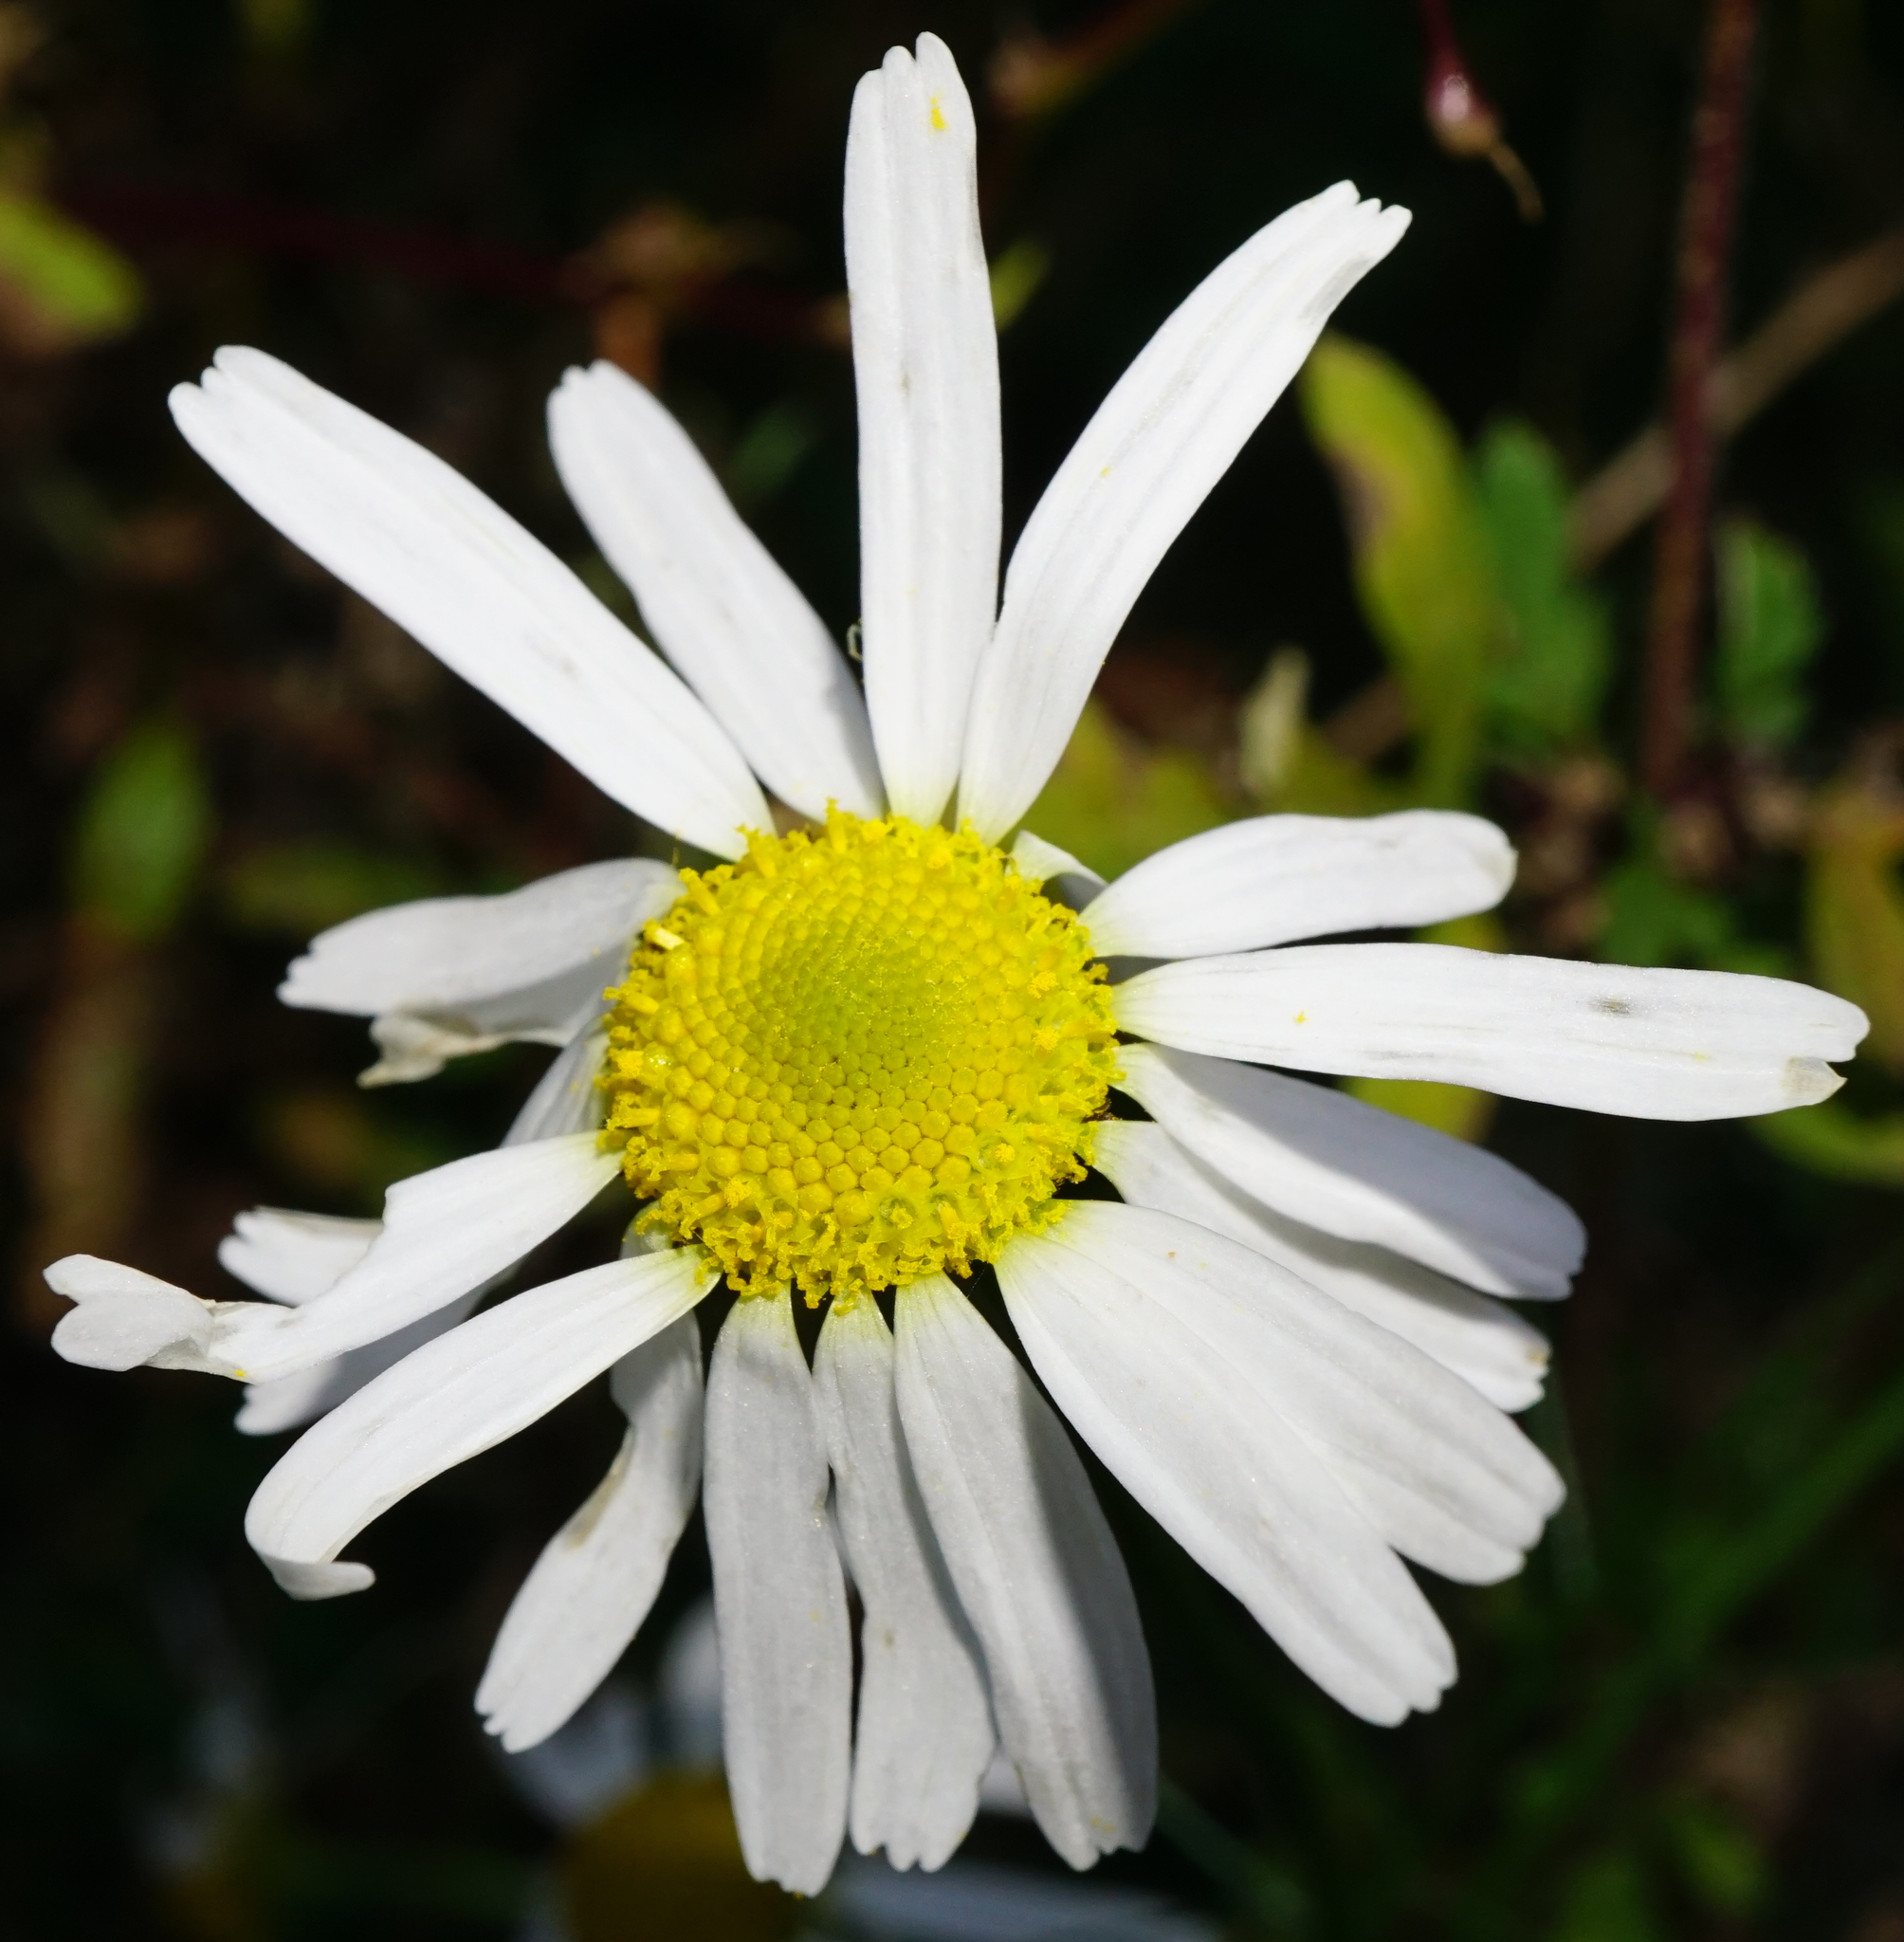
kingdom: Plantae
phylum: Tracheophyta
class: Magnoliopsida
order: Asterales
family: Asteraceae
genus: Tripleurospermum
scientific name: Tripleurospermum inodorum
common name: Scentless mayweed
